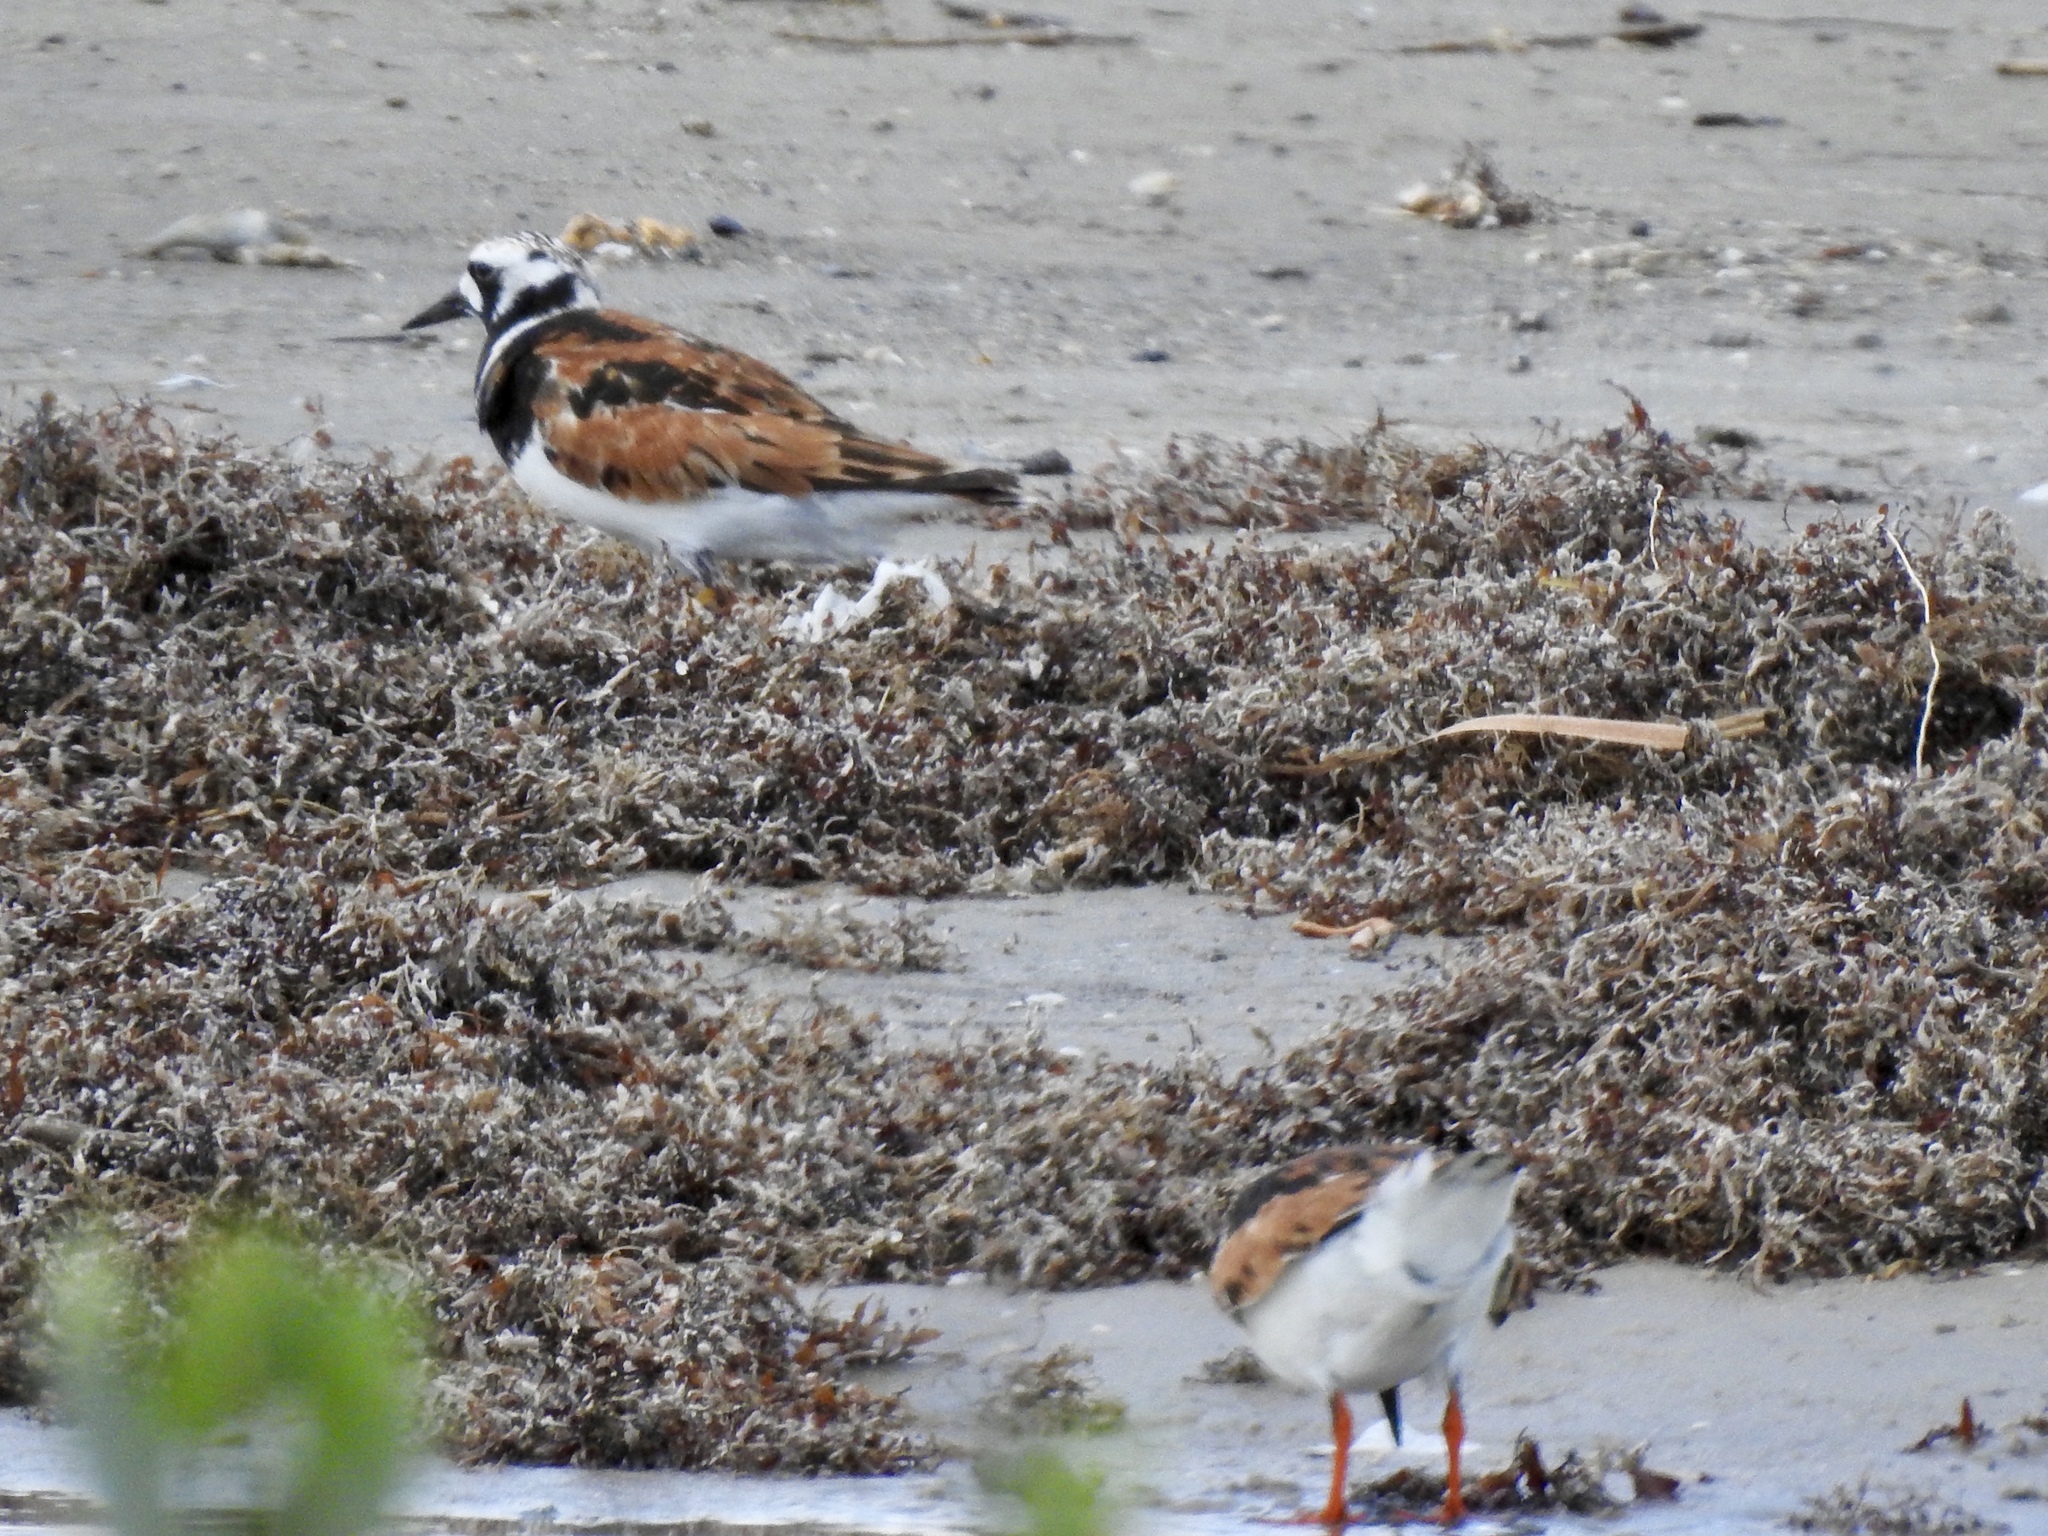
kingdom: Animalia
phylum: Chordata
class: Aves
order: Charadriiformes
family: Scolopacidae
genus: Arenaria
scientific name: Arenaria interpres
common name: Ruddy turnstone
